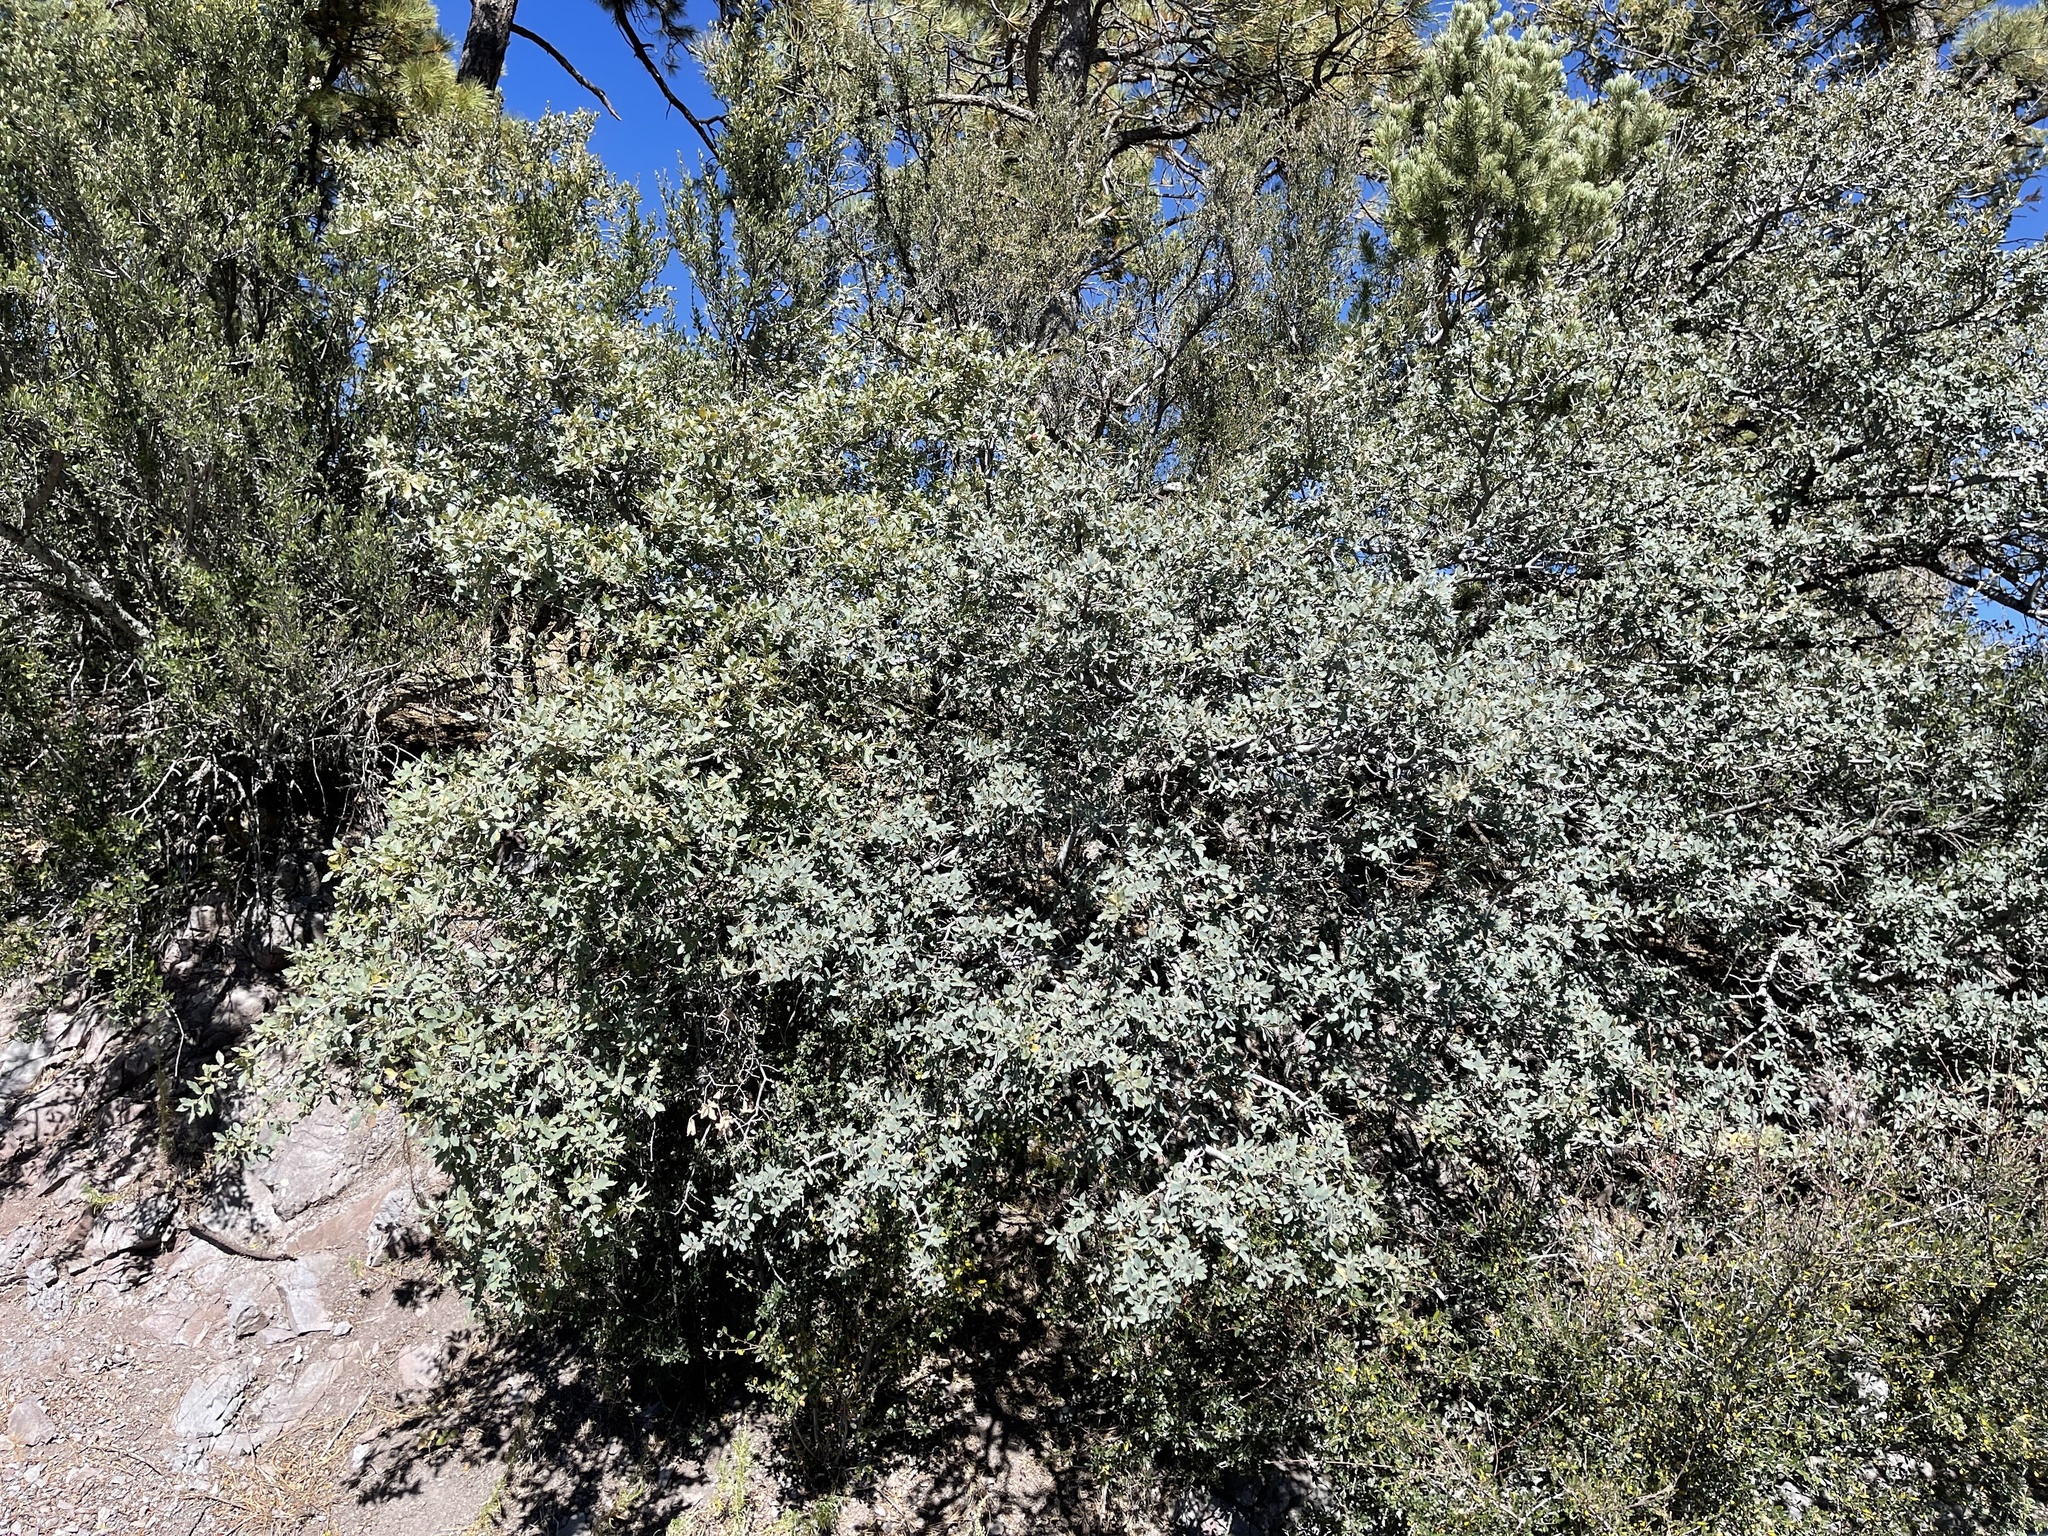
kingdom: Plantae
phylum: Tracheophyta
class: Magnoliopsida
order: Fagales
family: Fagaceae
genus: Quercus
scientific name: Quercus grisea
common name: Gray oak
